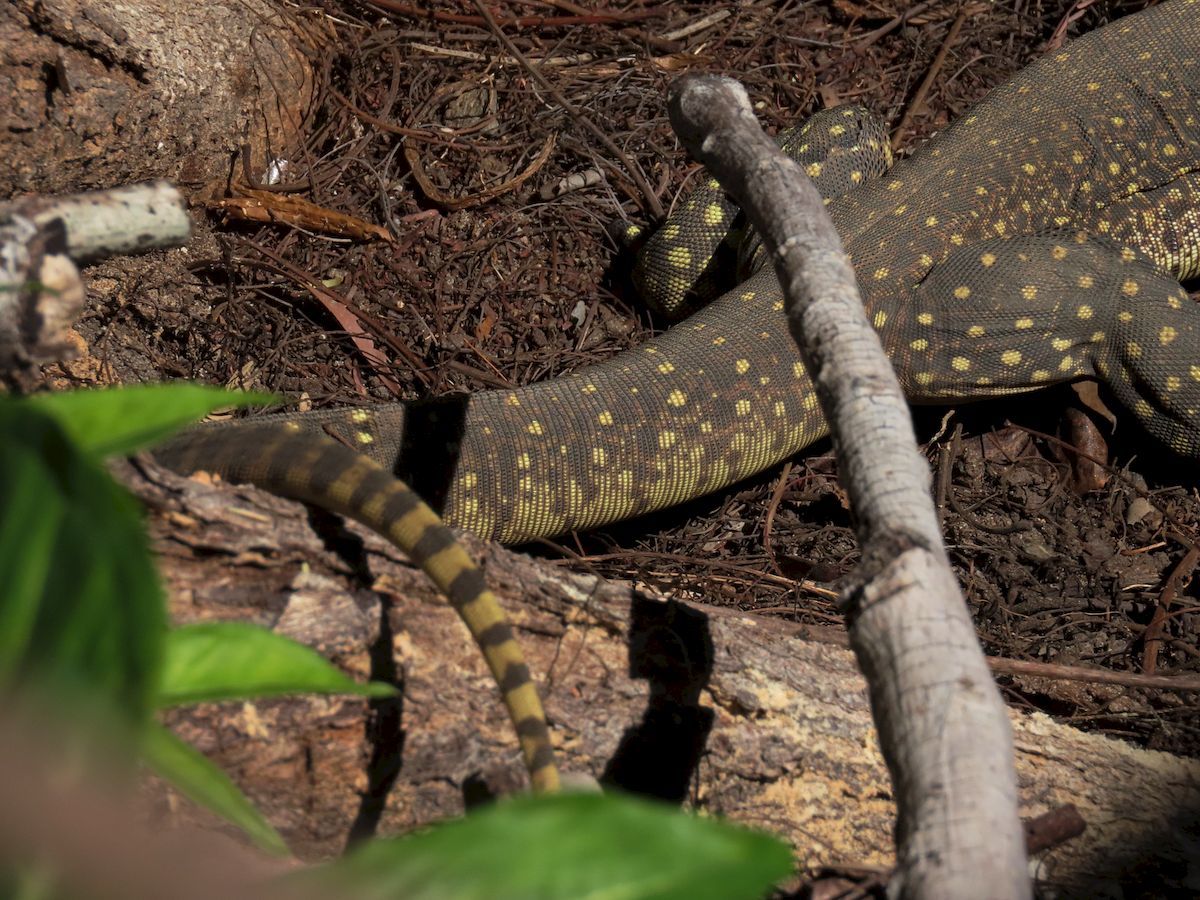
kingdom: Animalia
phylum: Chordata
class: Squamata
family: Varanidae
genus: Varanus
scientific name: Varanus panoptes
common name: Yellow-spotted monitor
